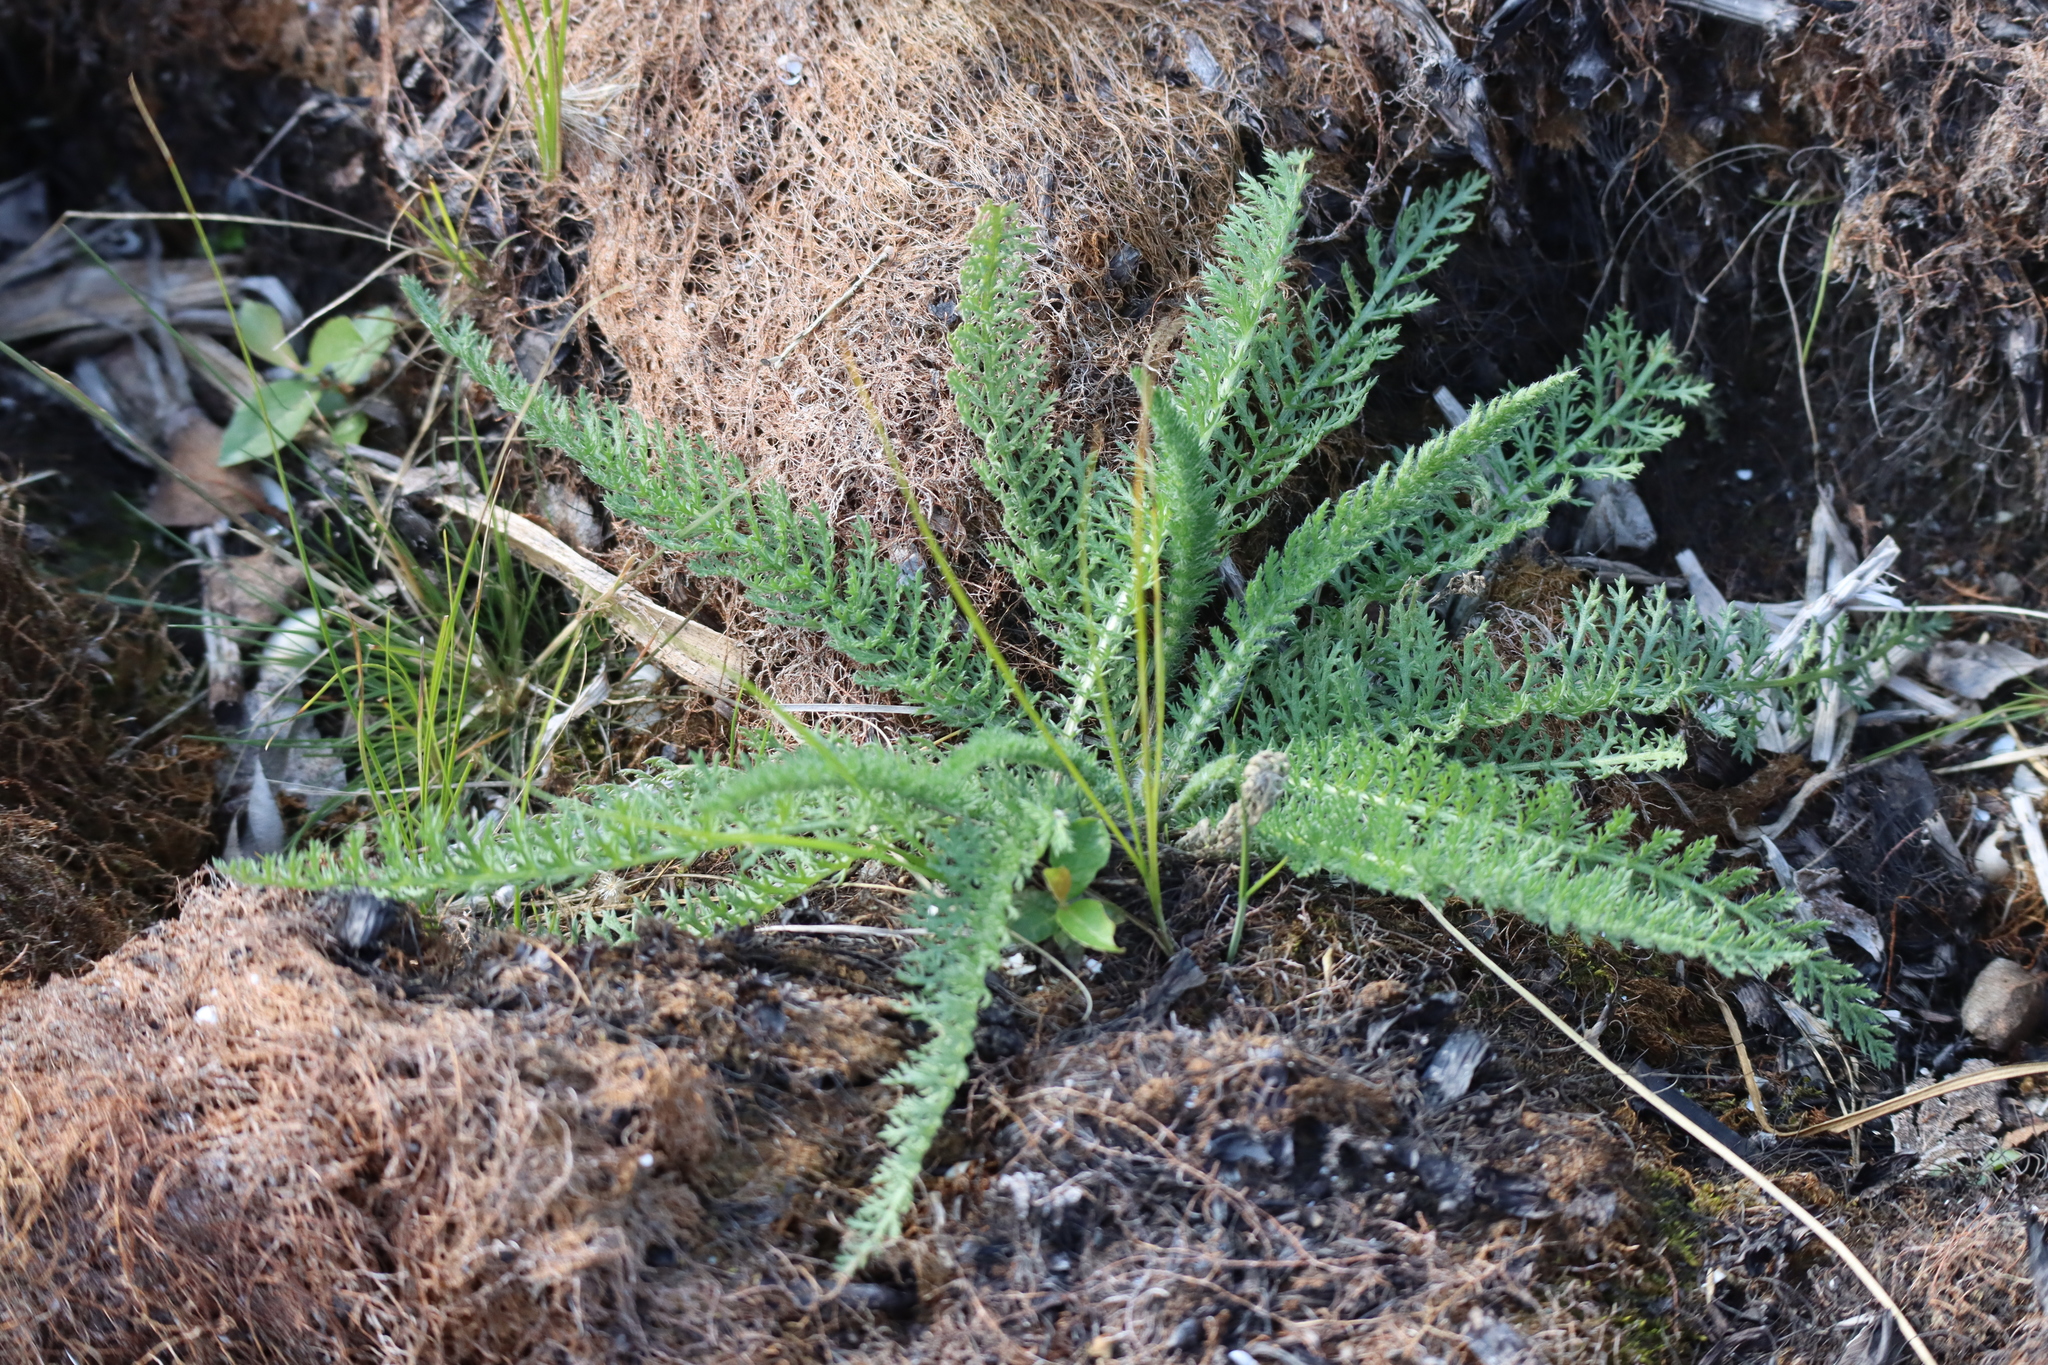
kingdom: Plantae
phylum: Tracheophyta
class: Magnoliopsida
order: Asterales
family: Asteraceae
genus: Achillea
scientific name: Achillea millefolium
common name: Yarrow
